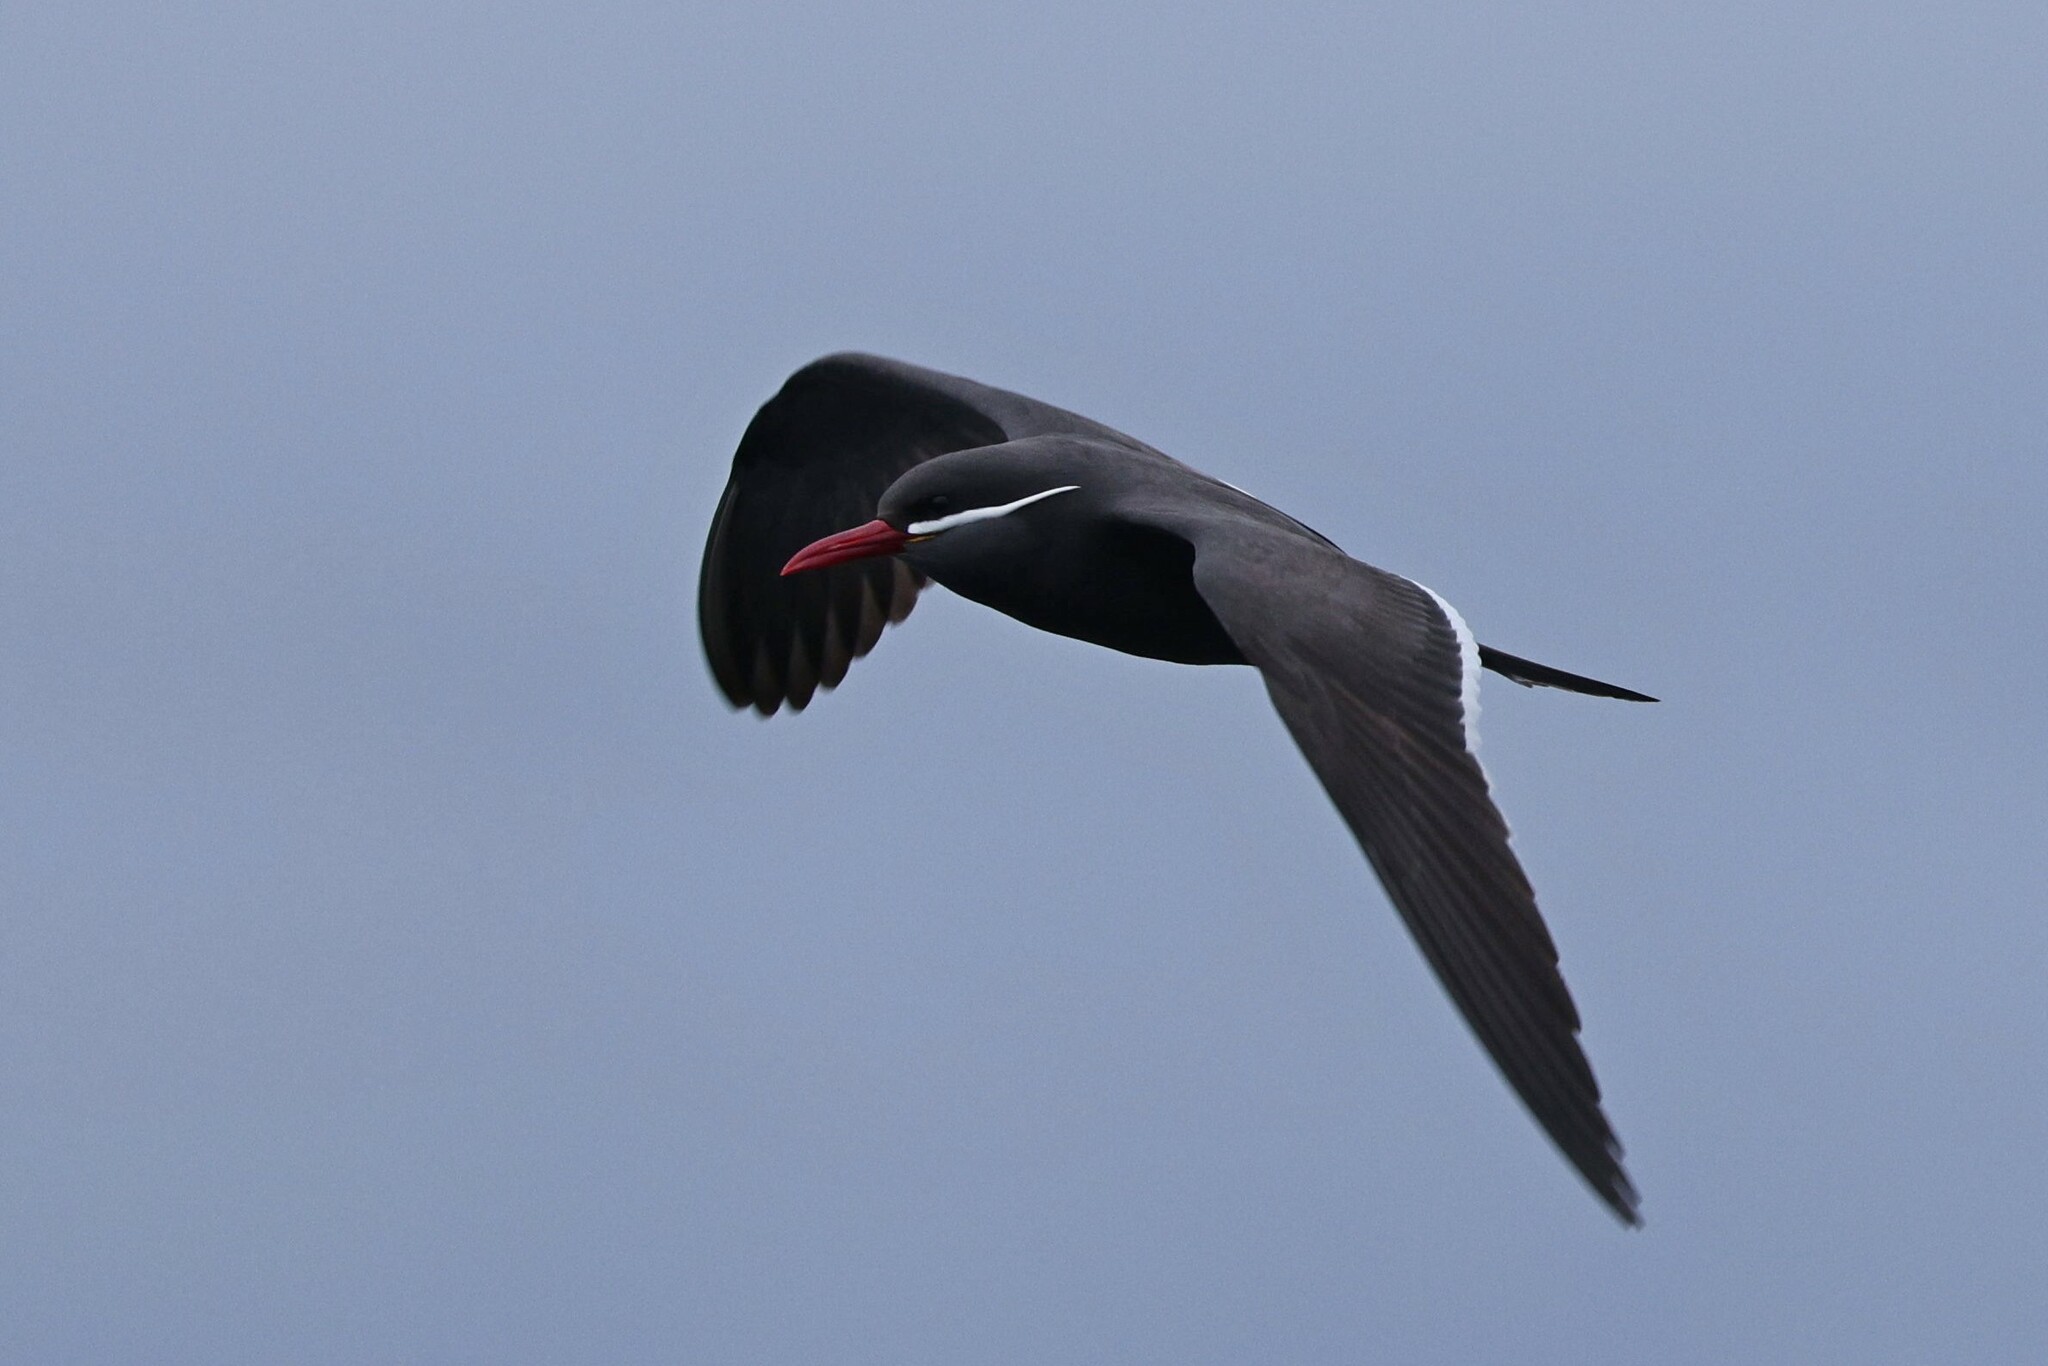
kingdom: Animalia
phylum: Chordata
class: Aves
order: Charadriiformes
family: Laridae
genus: Larosterna
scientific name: Larosterna inca
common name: Inca tern
